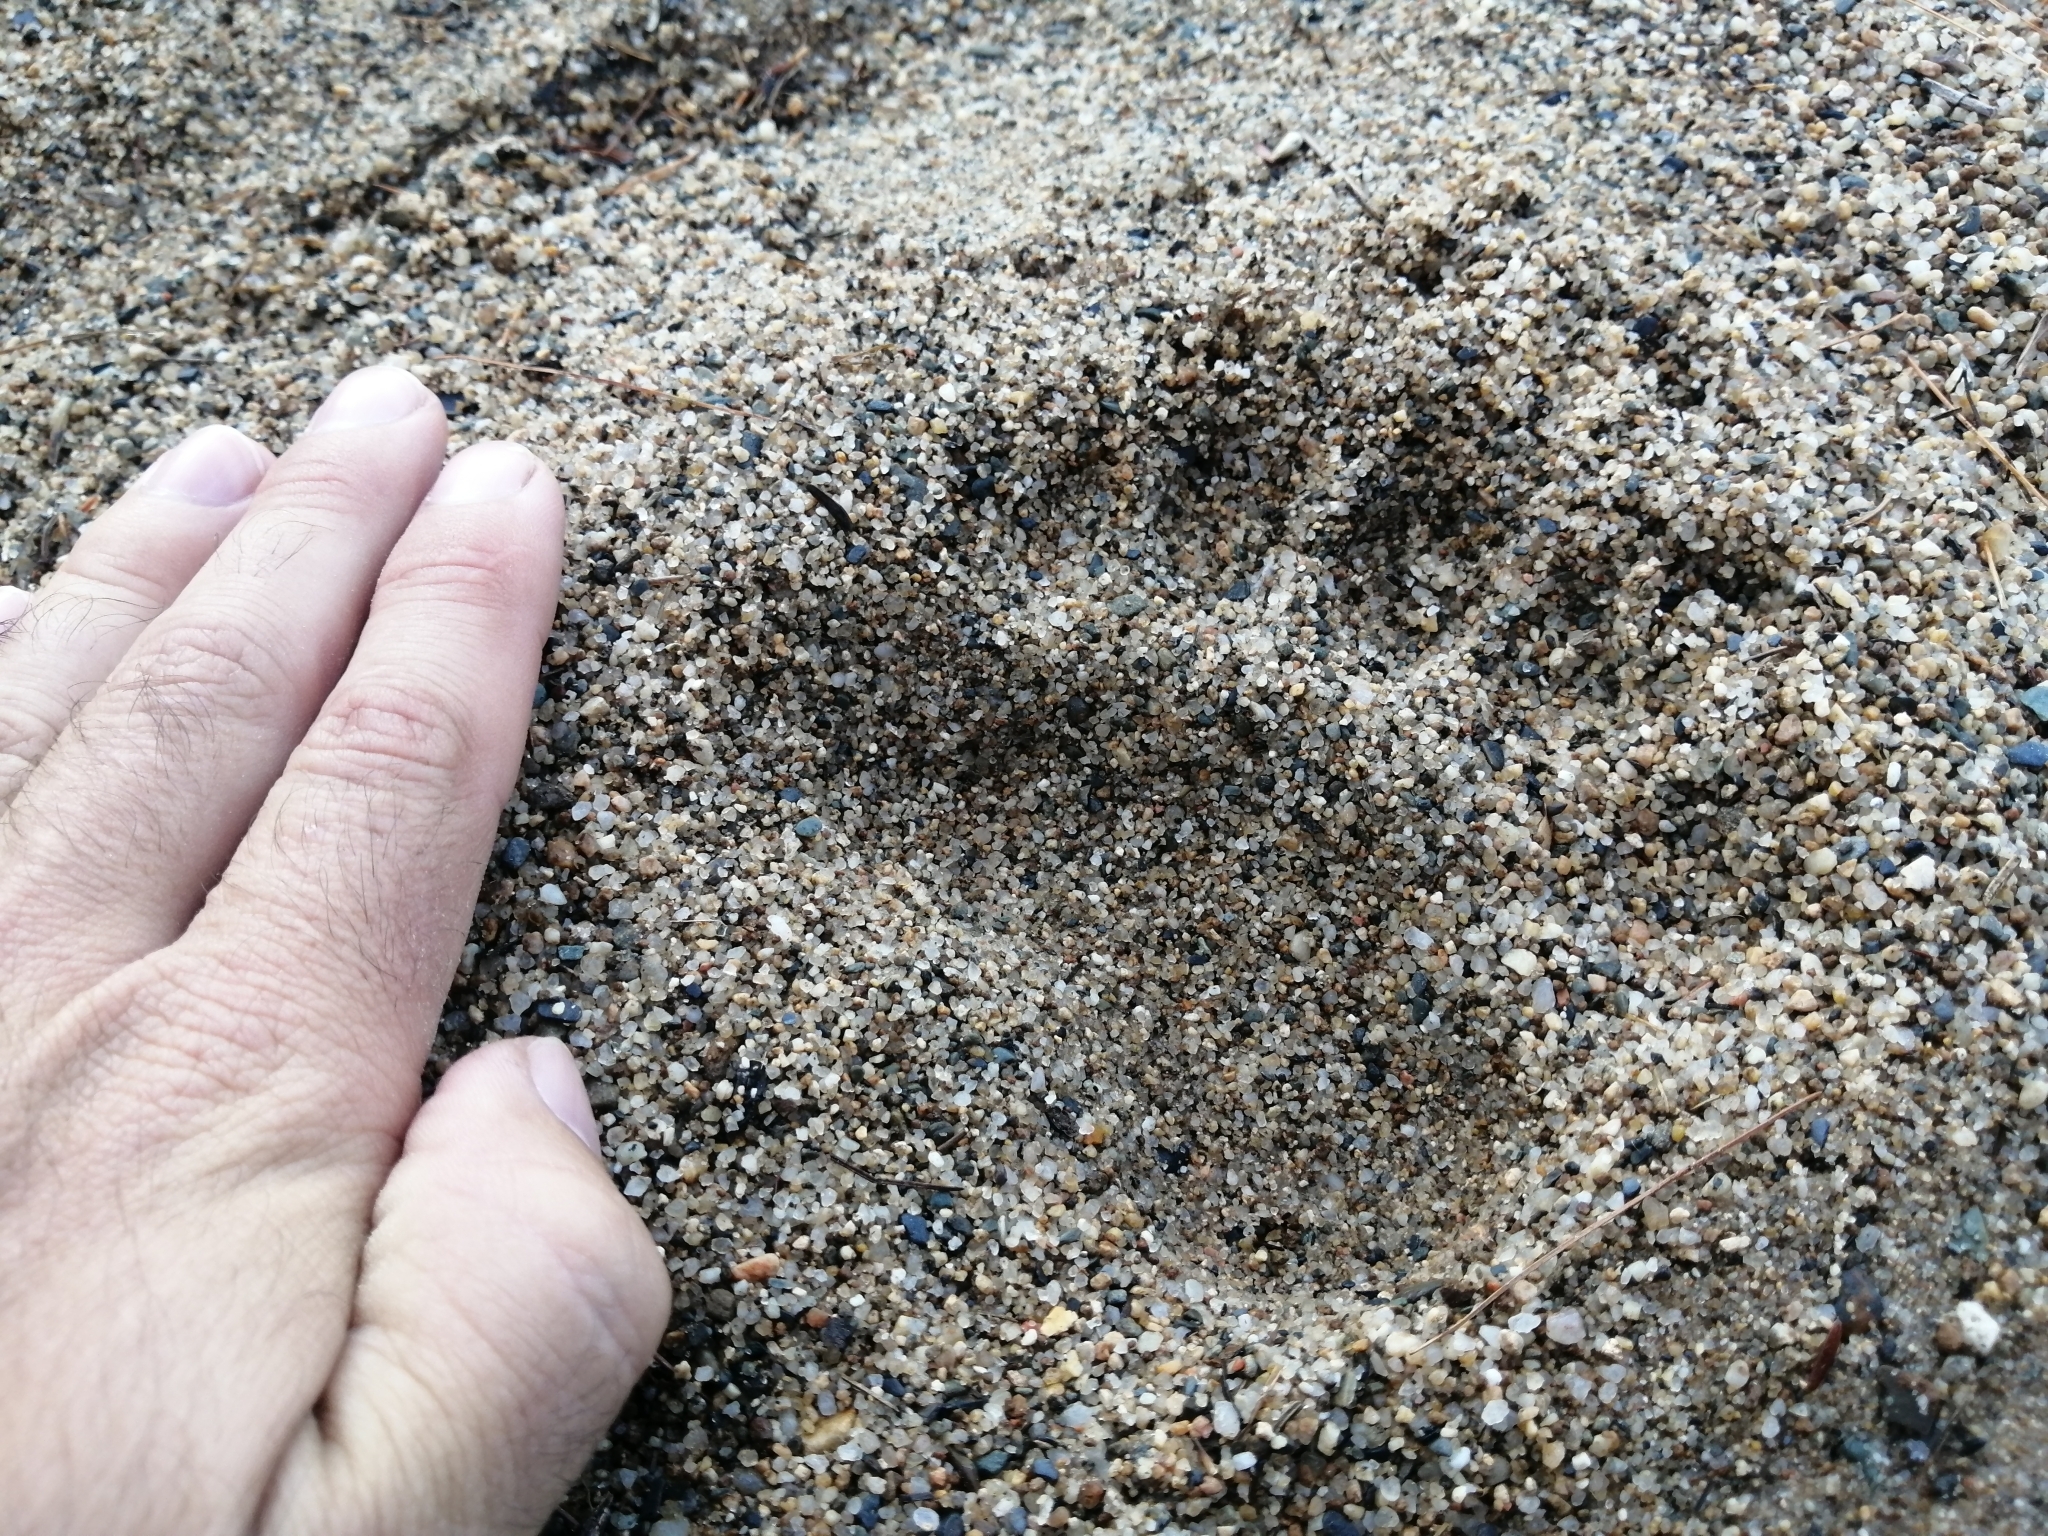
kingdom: Animalia
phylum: Chordata
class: Mammalia
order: Carnivora
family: Ursidae
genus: Ursus
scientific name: Ursus americanus
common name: American black bear
